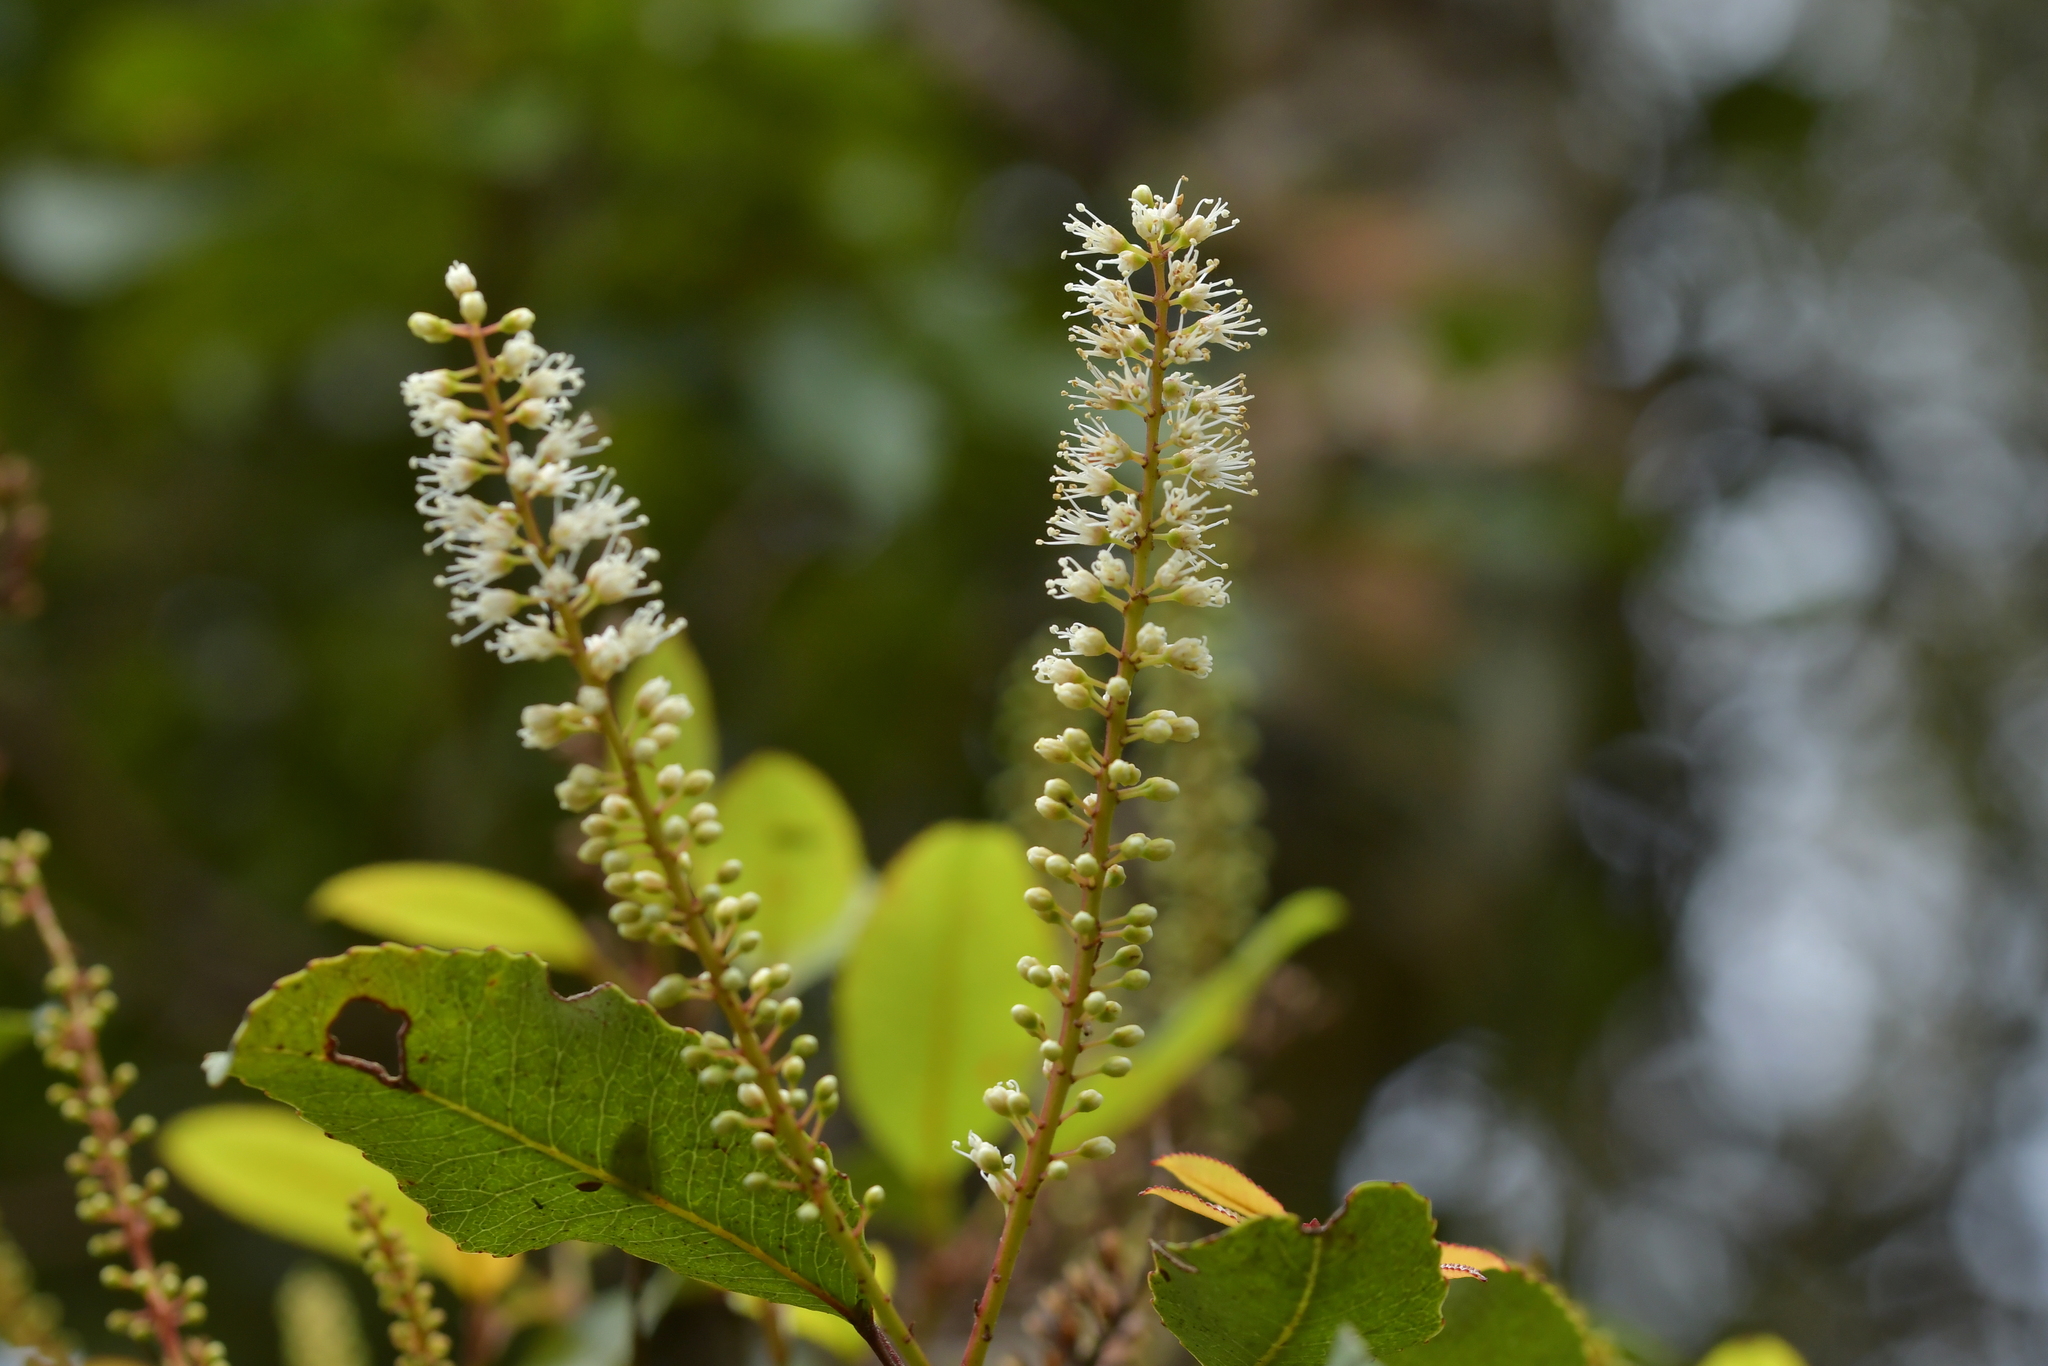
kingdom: Plantae
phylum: Tracheophyta
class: Magnoliopsida
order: Oxalidales
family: Cunoniaceae
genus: Pterophylla
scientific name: Pterophylla racemosa
